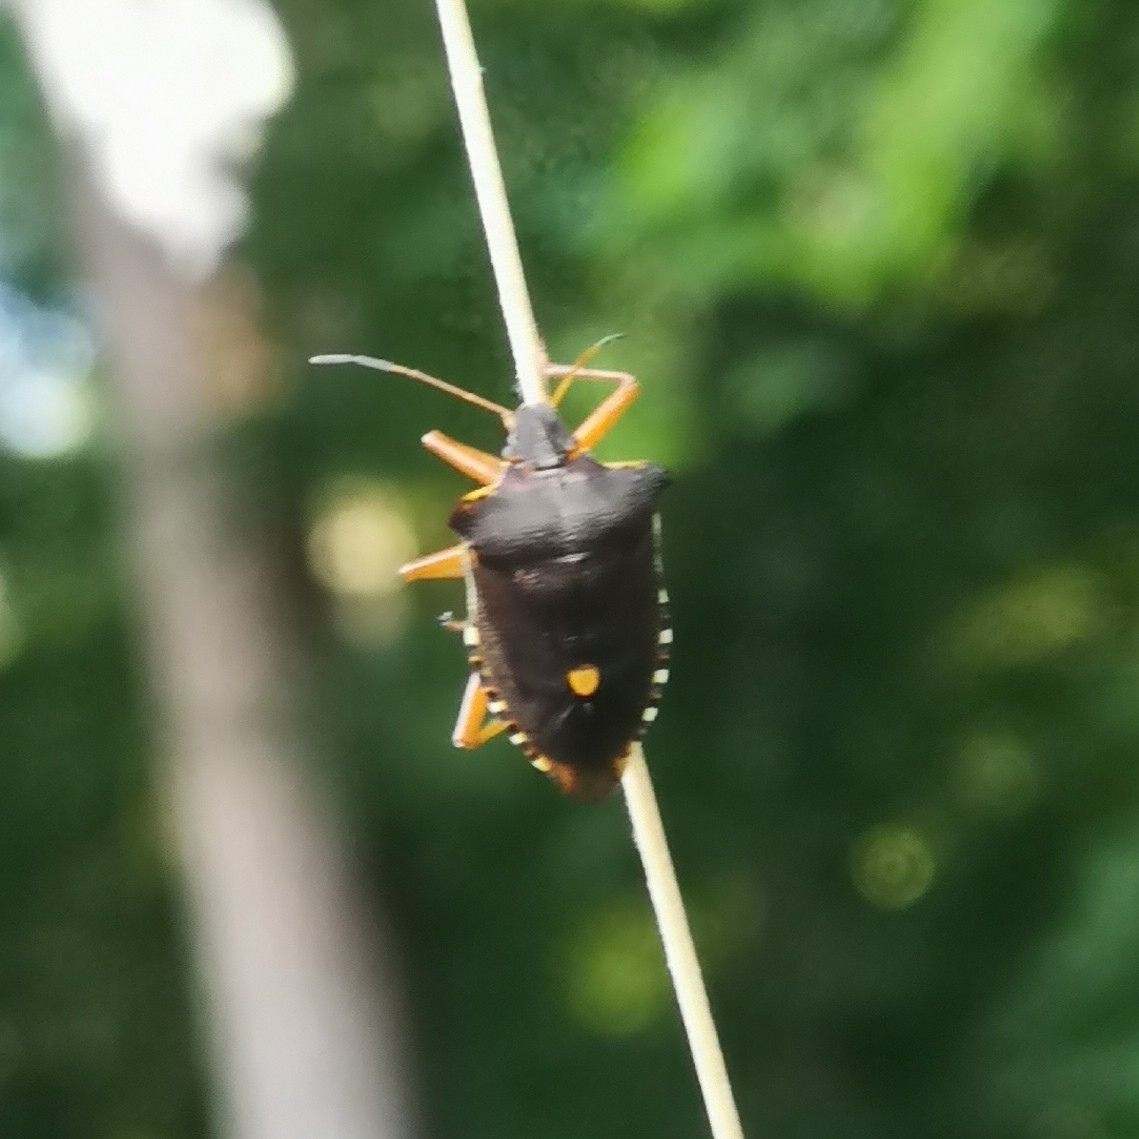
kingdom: Animalia
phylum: Arthropoda
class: Insecta
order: Hemiptera
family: Pentatomidae
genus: Pentatoma
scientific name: Pentatoma rufipes
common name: Forest bug
